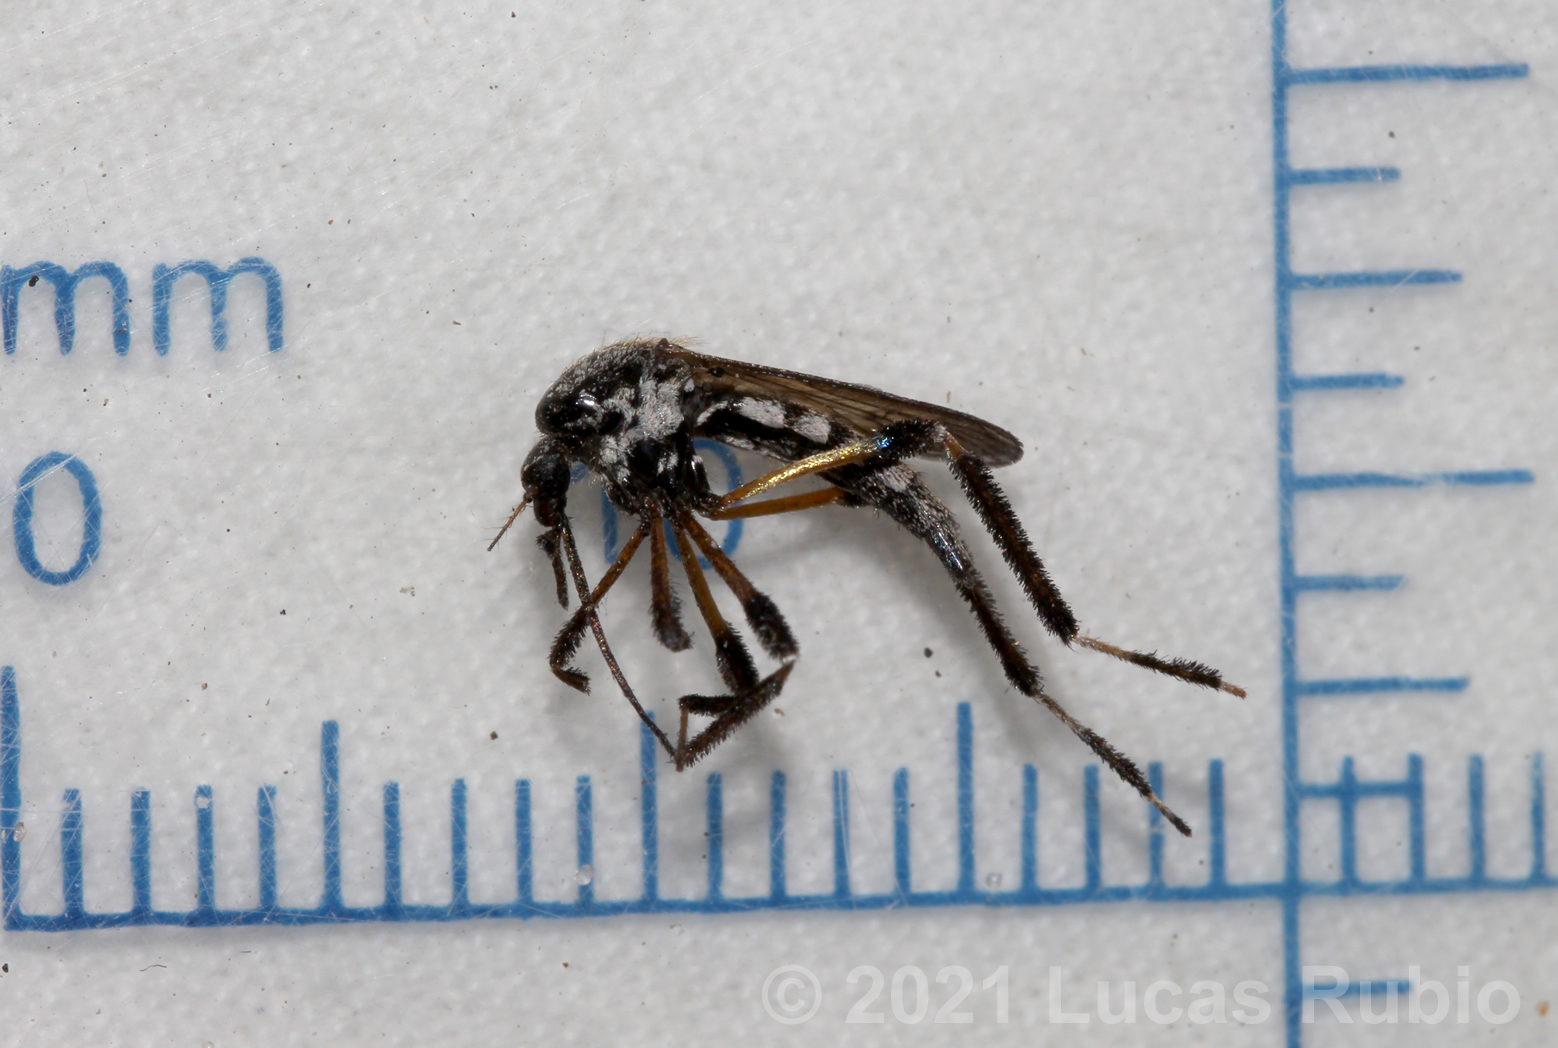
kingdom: Animalia
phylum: Arthropoda
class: Insecta
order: Diptera
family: Culicidae
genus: Psorophora
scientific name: Psorophora holmbergii
